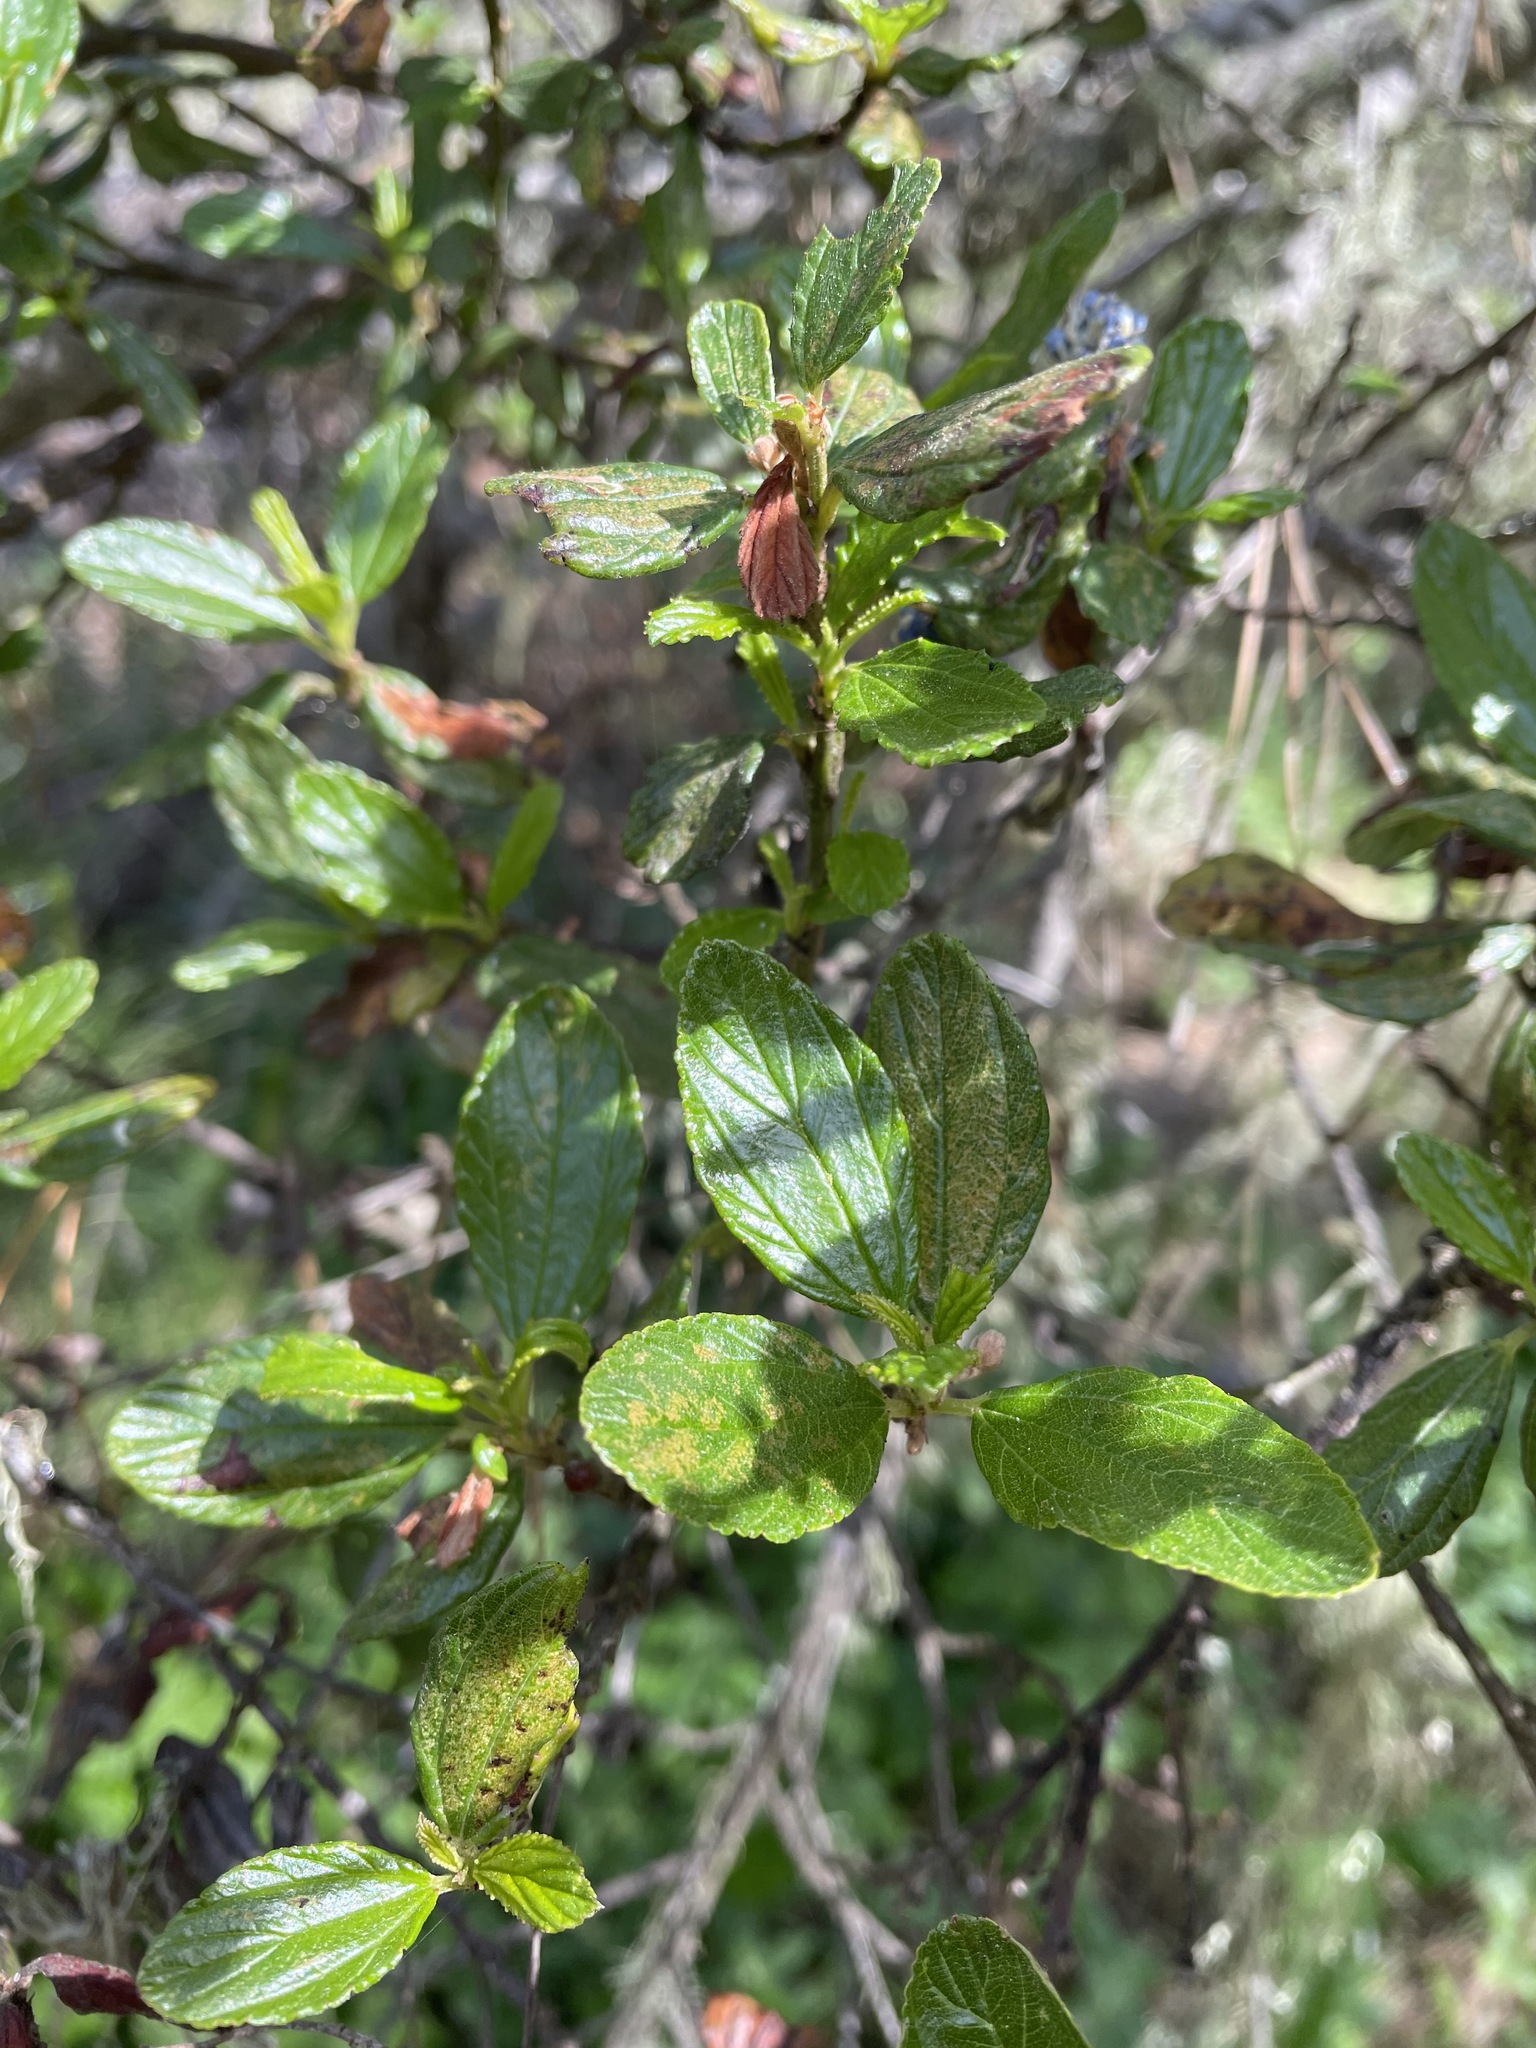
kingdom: Plantae
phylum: Tracheophyta
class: Magnoliopsida
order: Rosales
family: Rhamnaceae
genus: Ceanothus
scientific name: Ceanothus thyrsiflorus
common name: California-lilac
